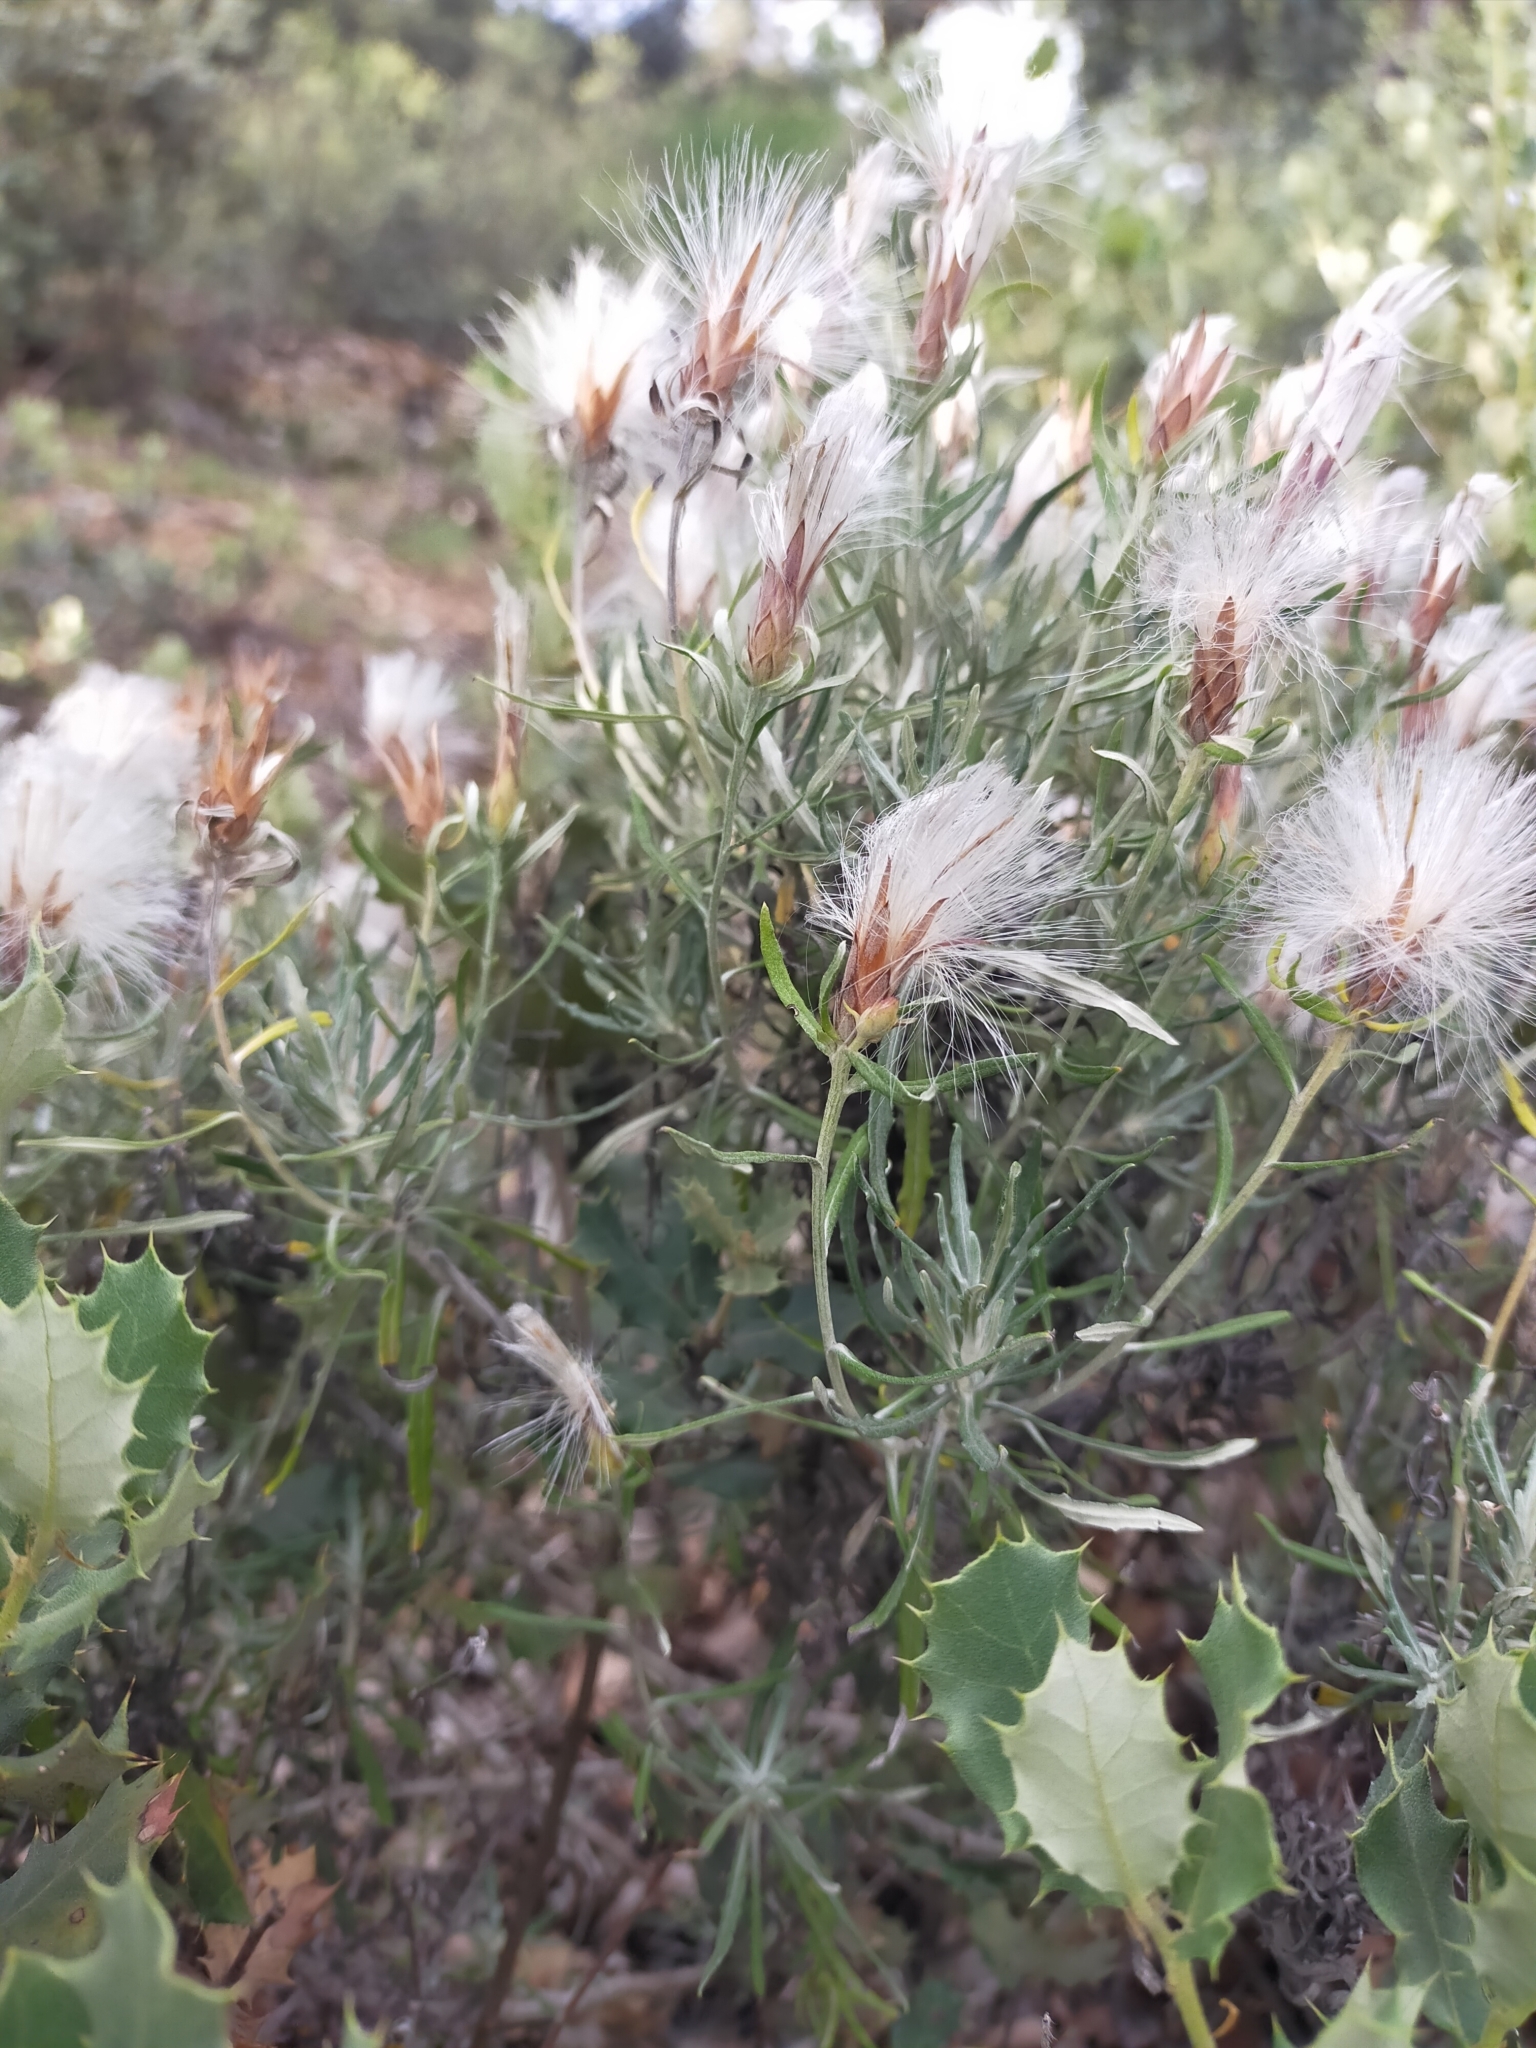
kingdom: Plantae
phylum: Tracheophyta
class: Magnoliopsida
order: Asterales
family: Asteraceae
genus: Staehelina
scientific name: Staehelina dubia
